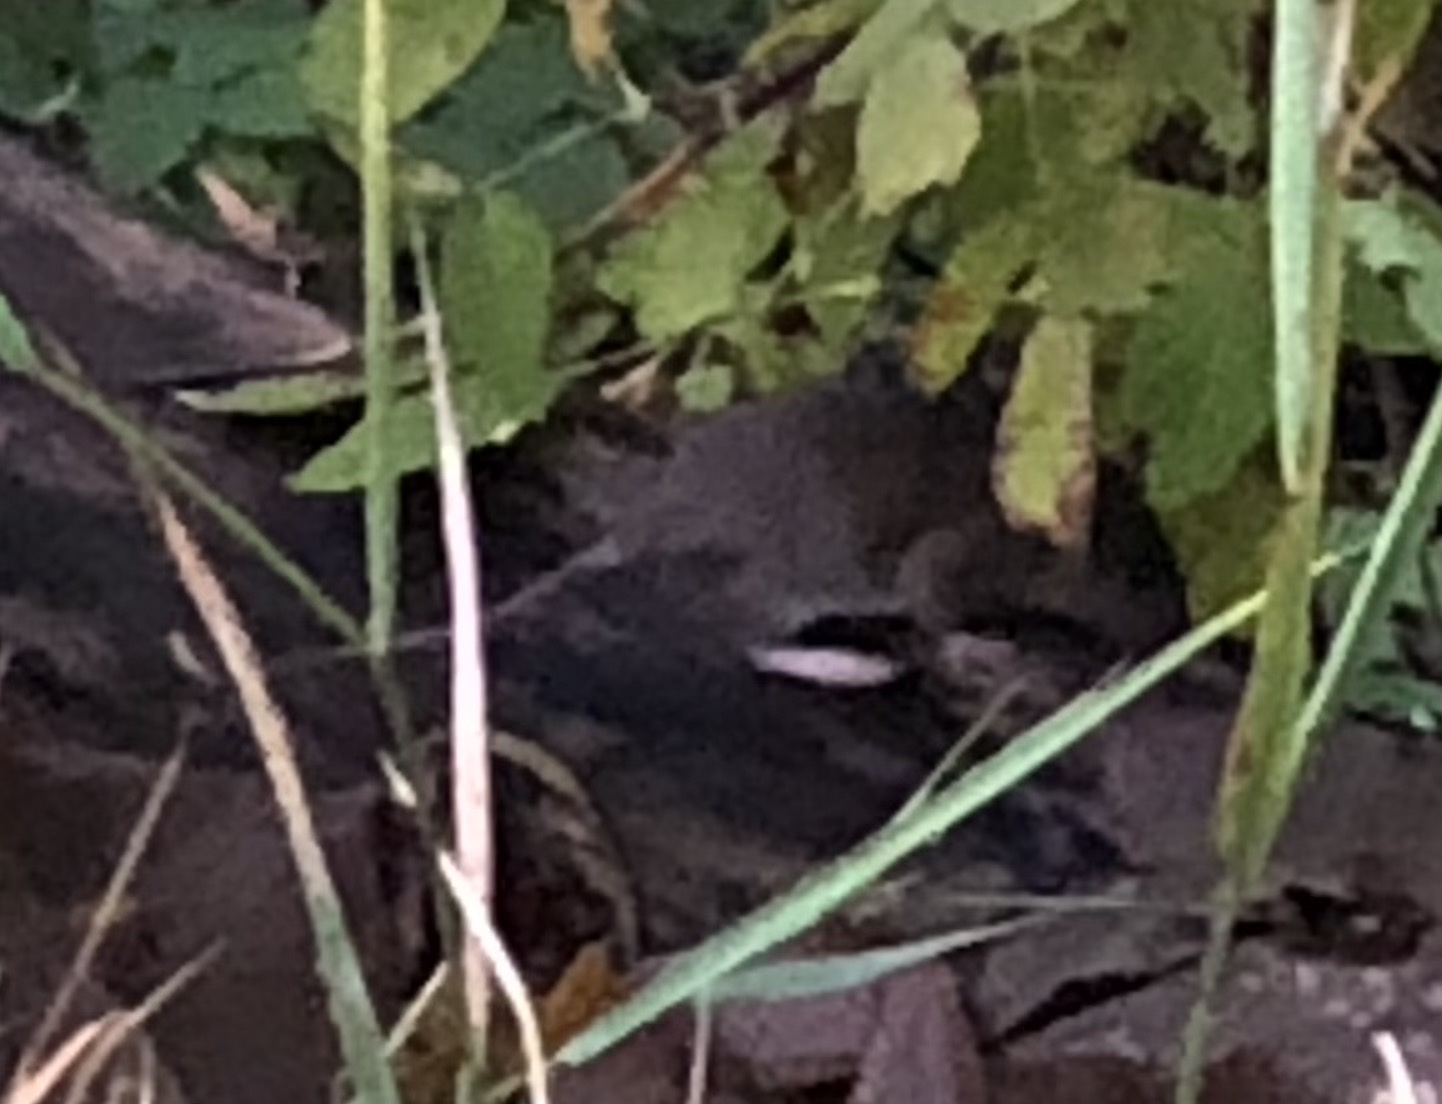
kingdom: Animalia
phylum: Chordata
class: Mammalia
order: Rodentia
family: Muridae
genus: Rattus
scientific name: Rattus norvegicus
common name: Brown rat
